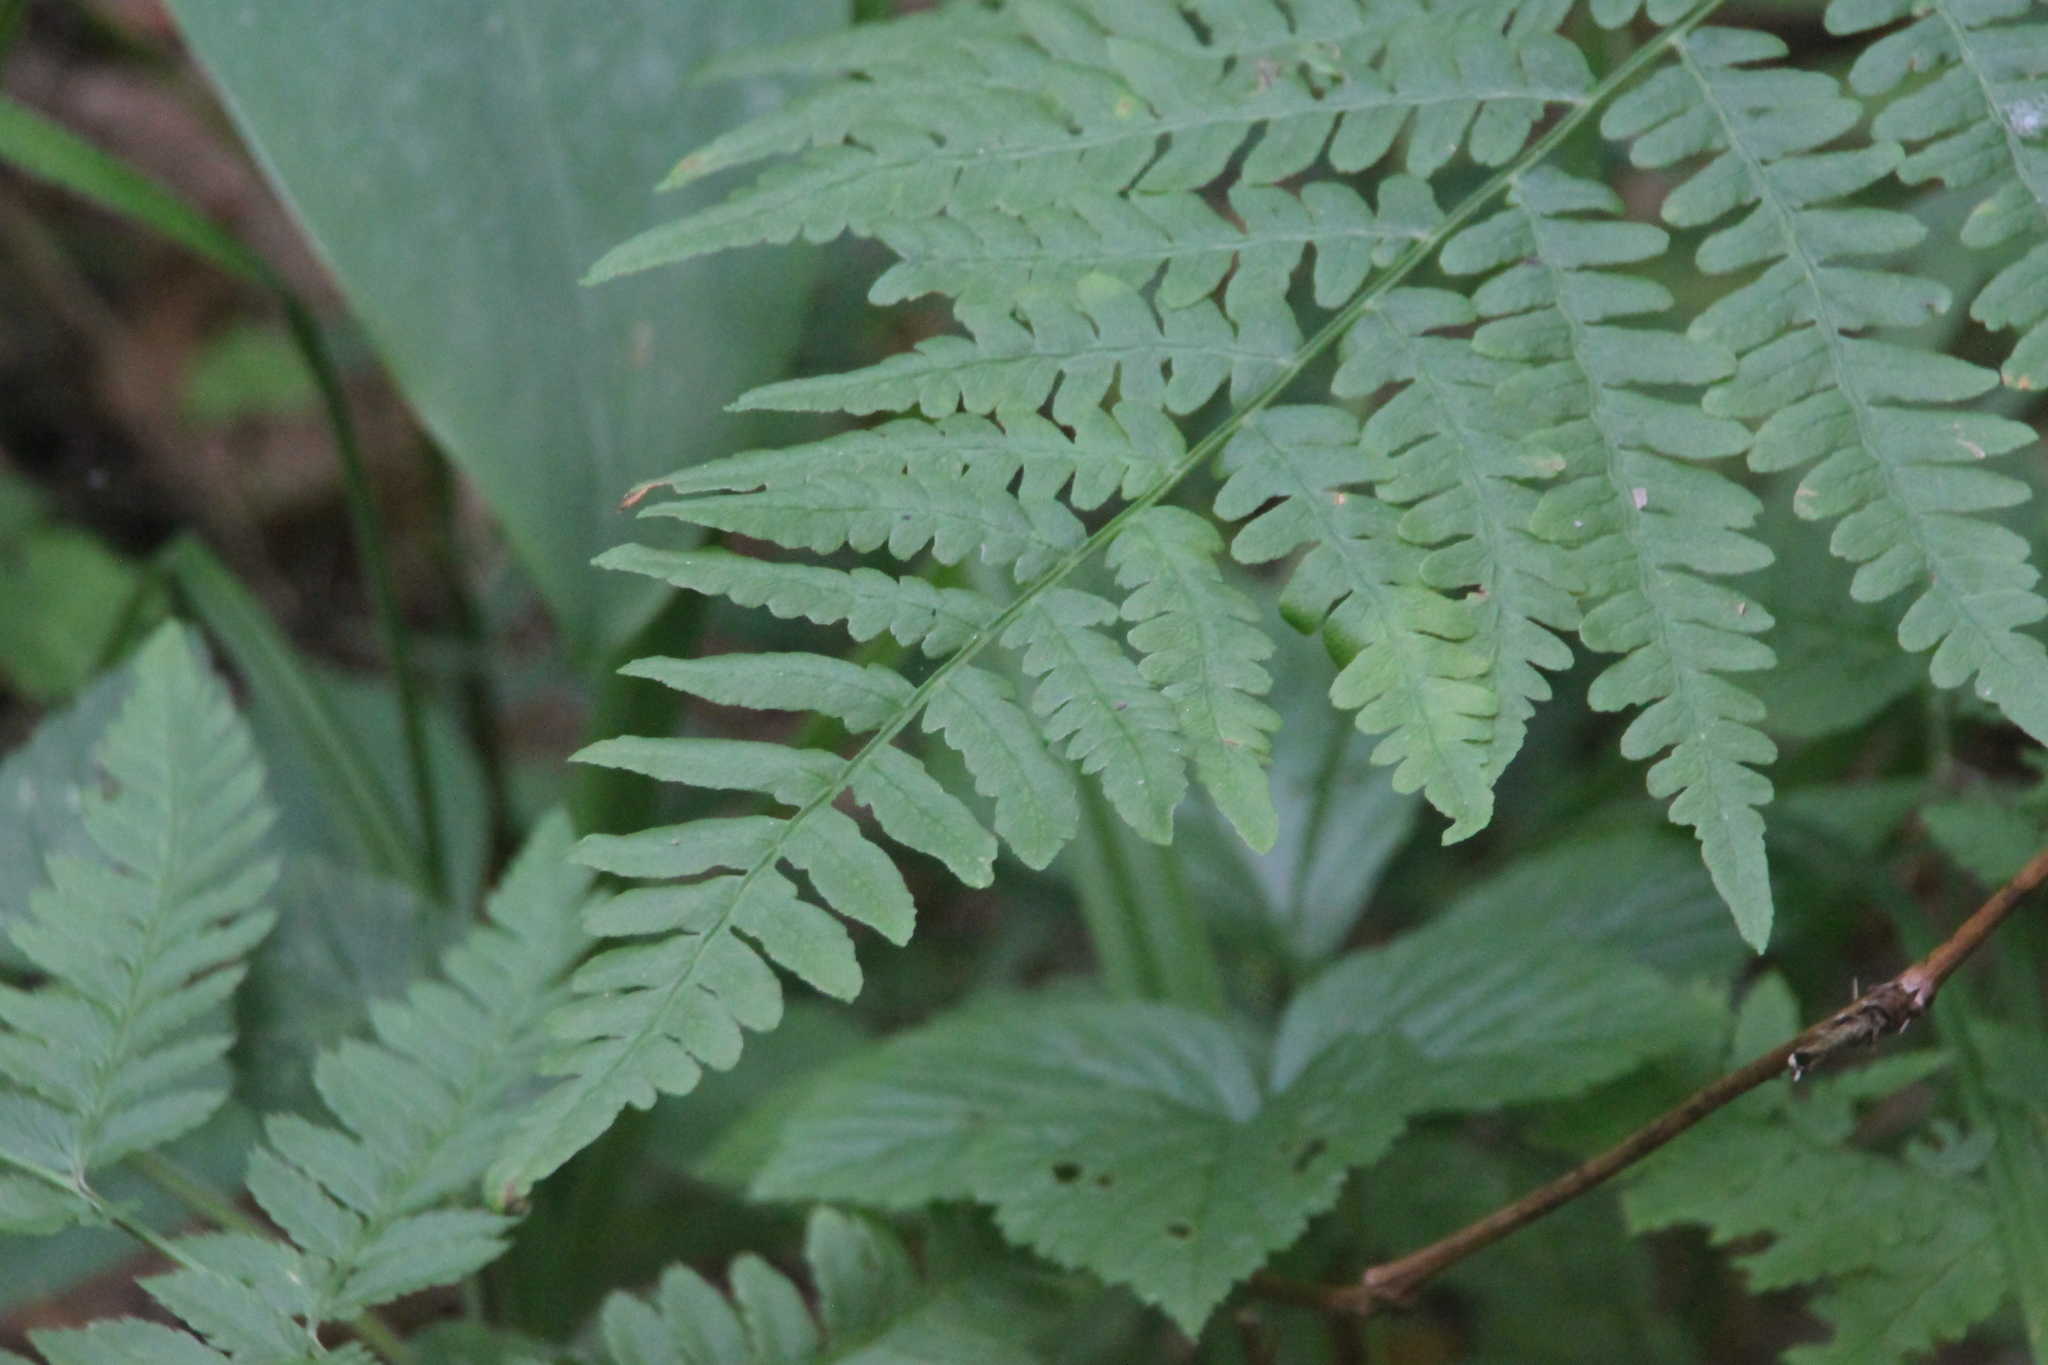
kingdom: Plantae
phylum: Tracheophyta
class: Polypodiopsida
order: Polypodiales
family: Dennstaedtiaceae
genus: Pteridium
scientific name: Pteridium aquilinum
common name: Bracken
